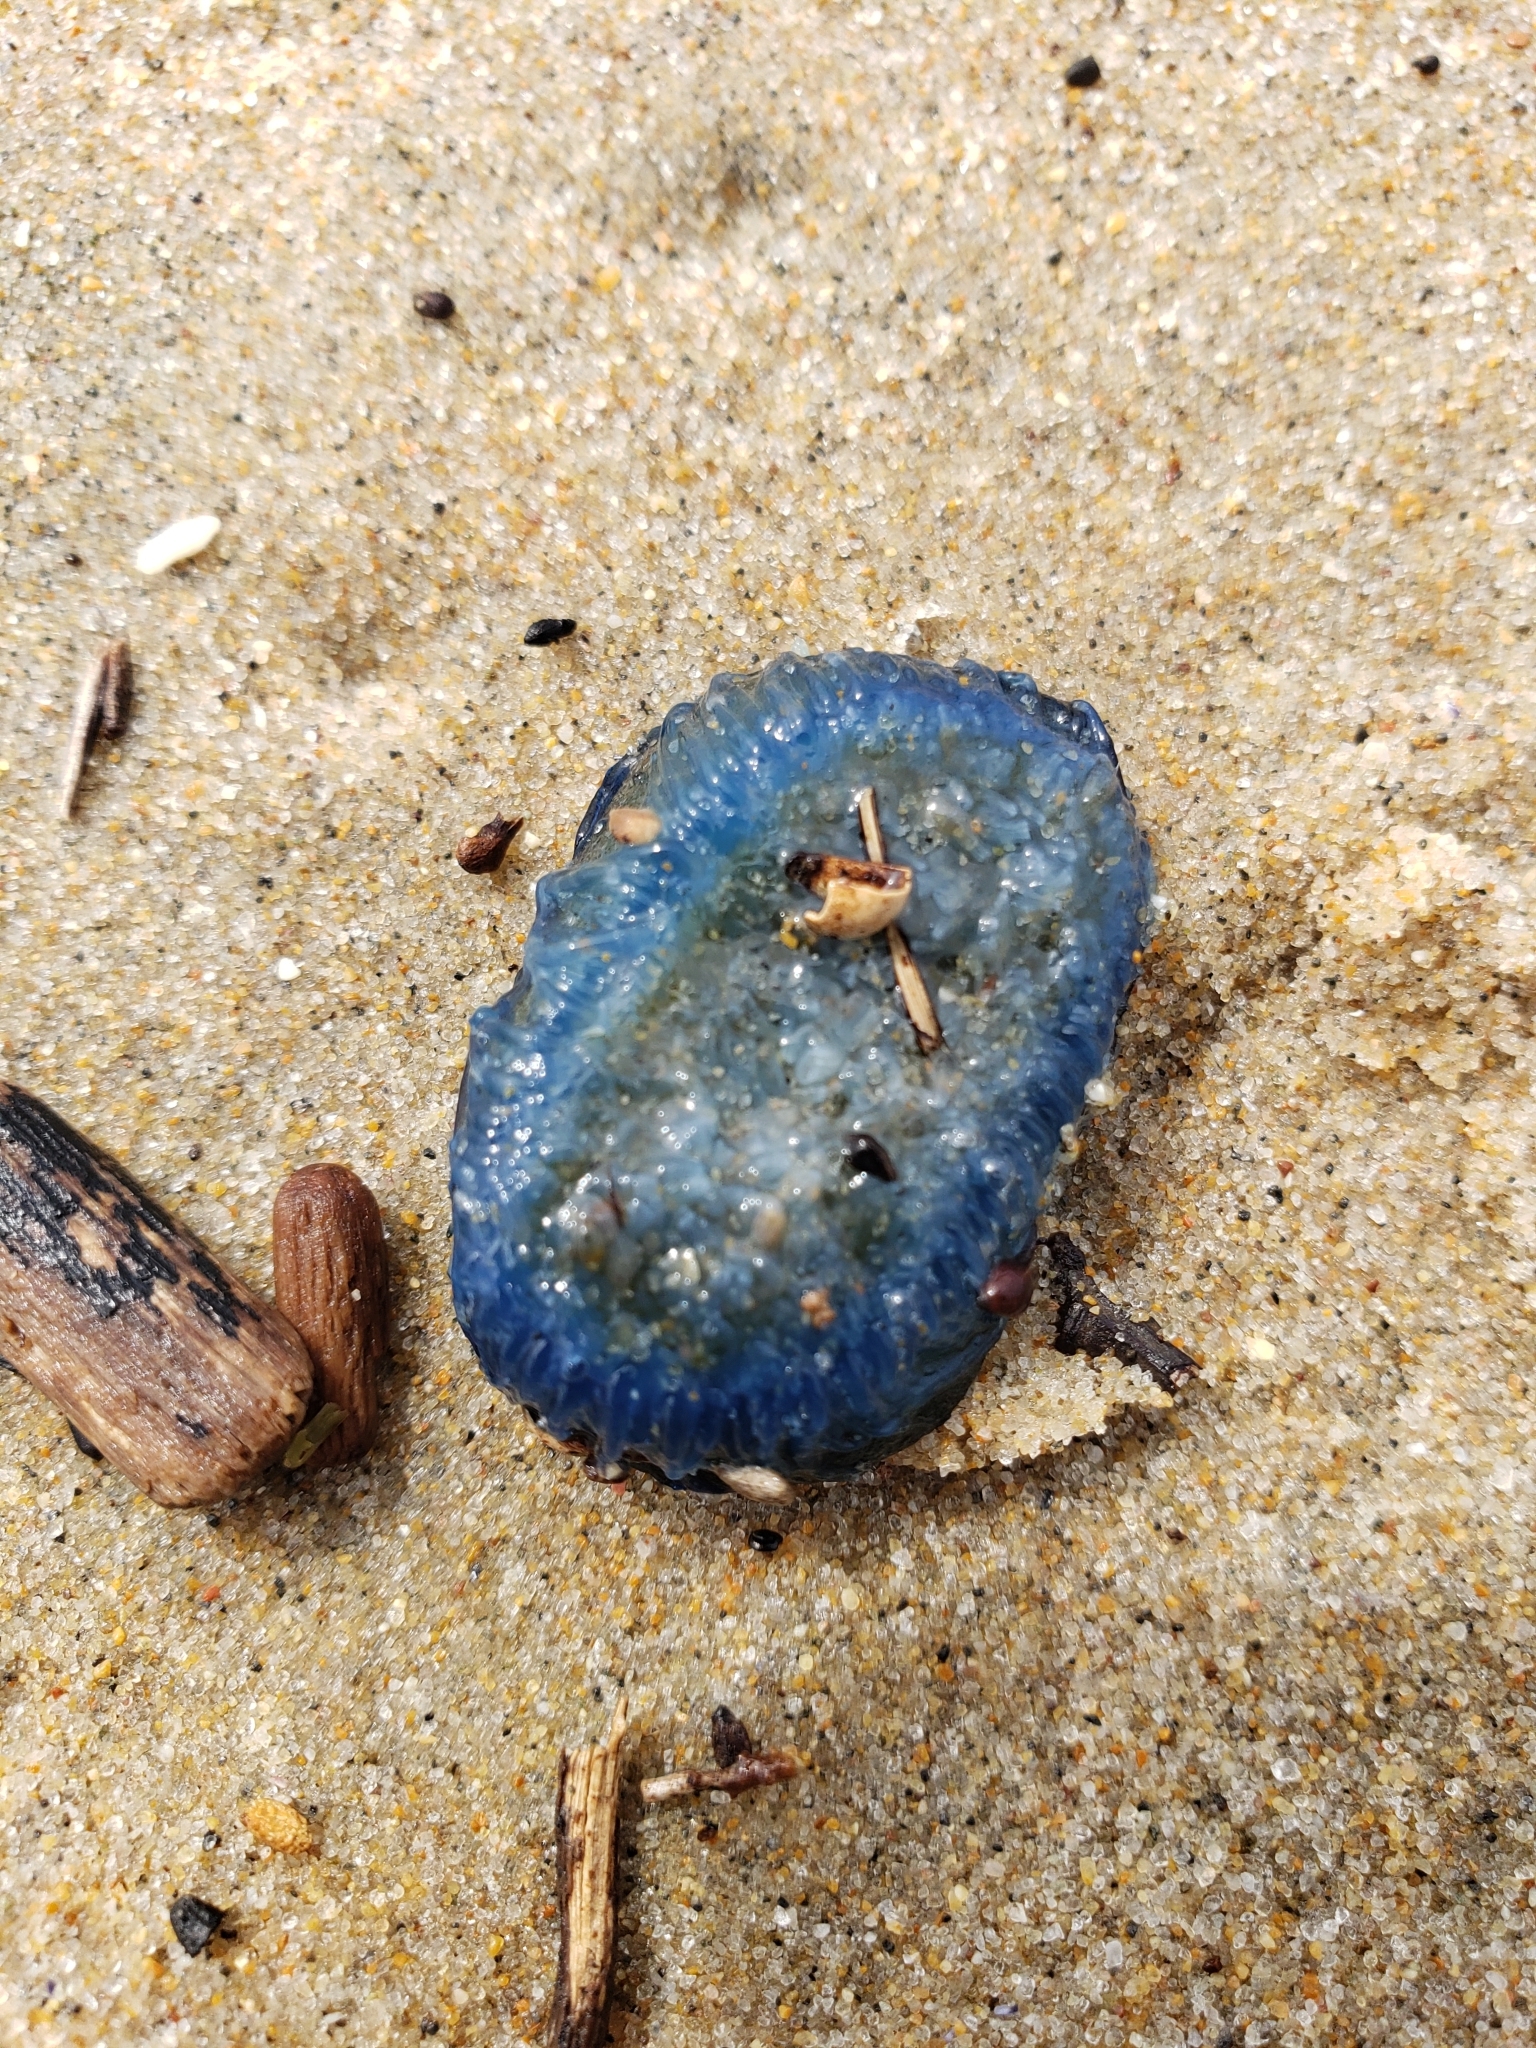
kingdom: Animalia
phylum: Cnidaria
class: Hydrozoa
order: Anthoathecata
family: Porpitidae
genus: Velella
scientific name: Velella velella
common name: By-the-wind-sailor
